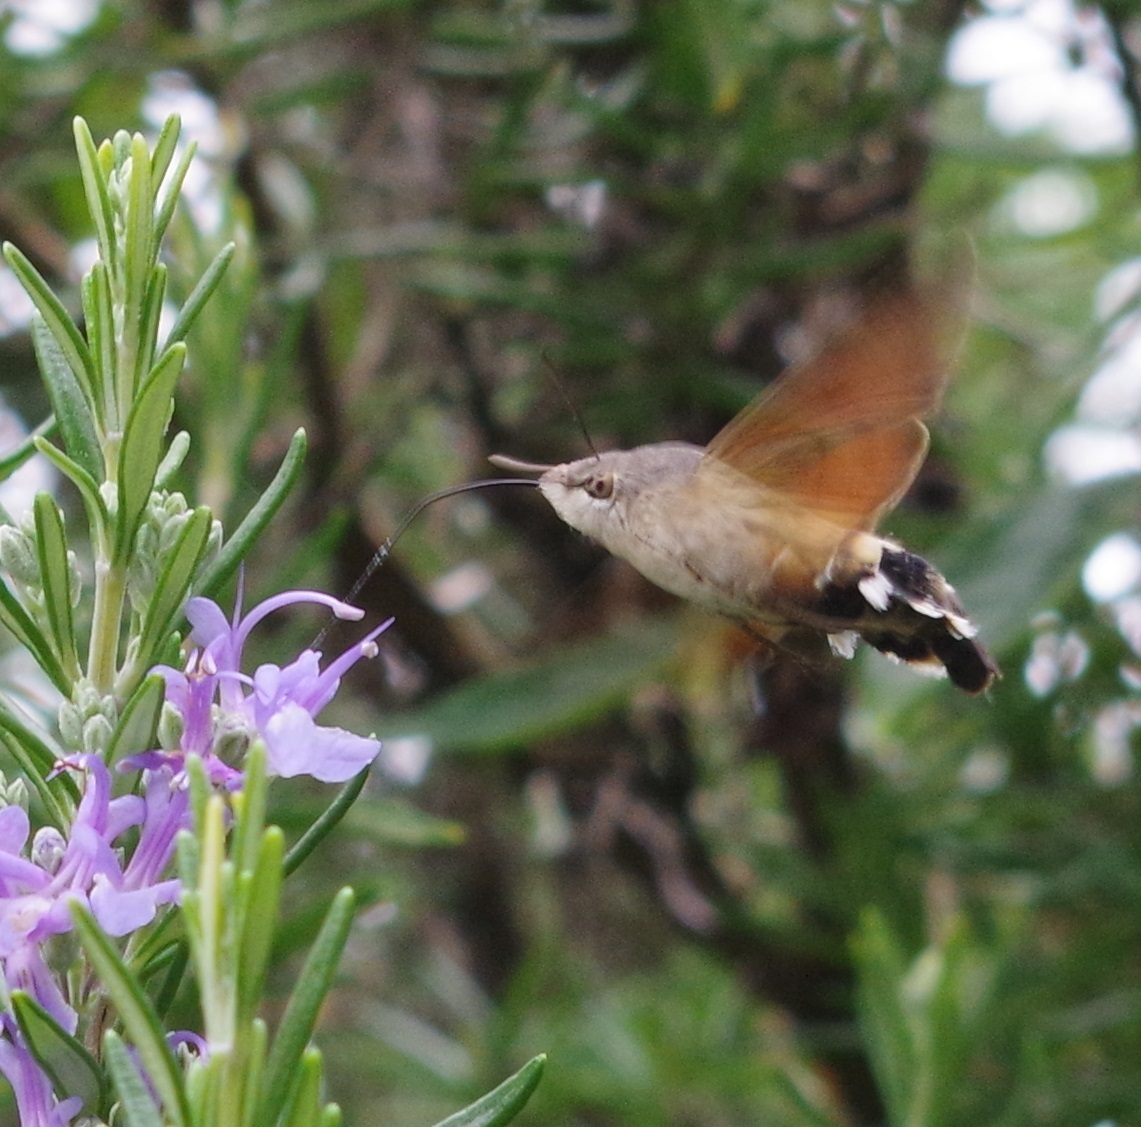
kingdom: Animalia
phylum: Arthropoda
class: Insecta
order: Lepidoptera
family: Sphingidae
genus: Macroglossum
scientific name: Macroglossum stellatarum
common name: Humming-bird hawk-moth
